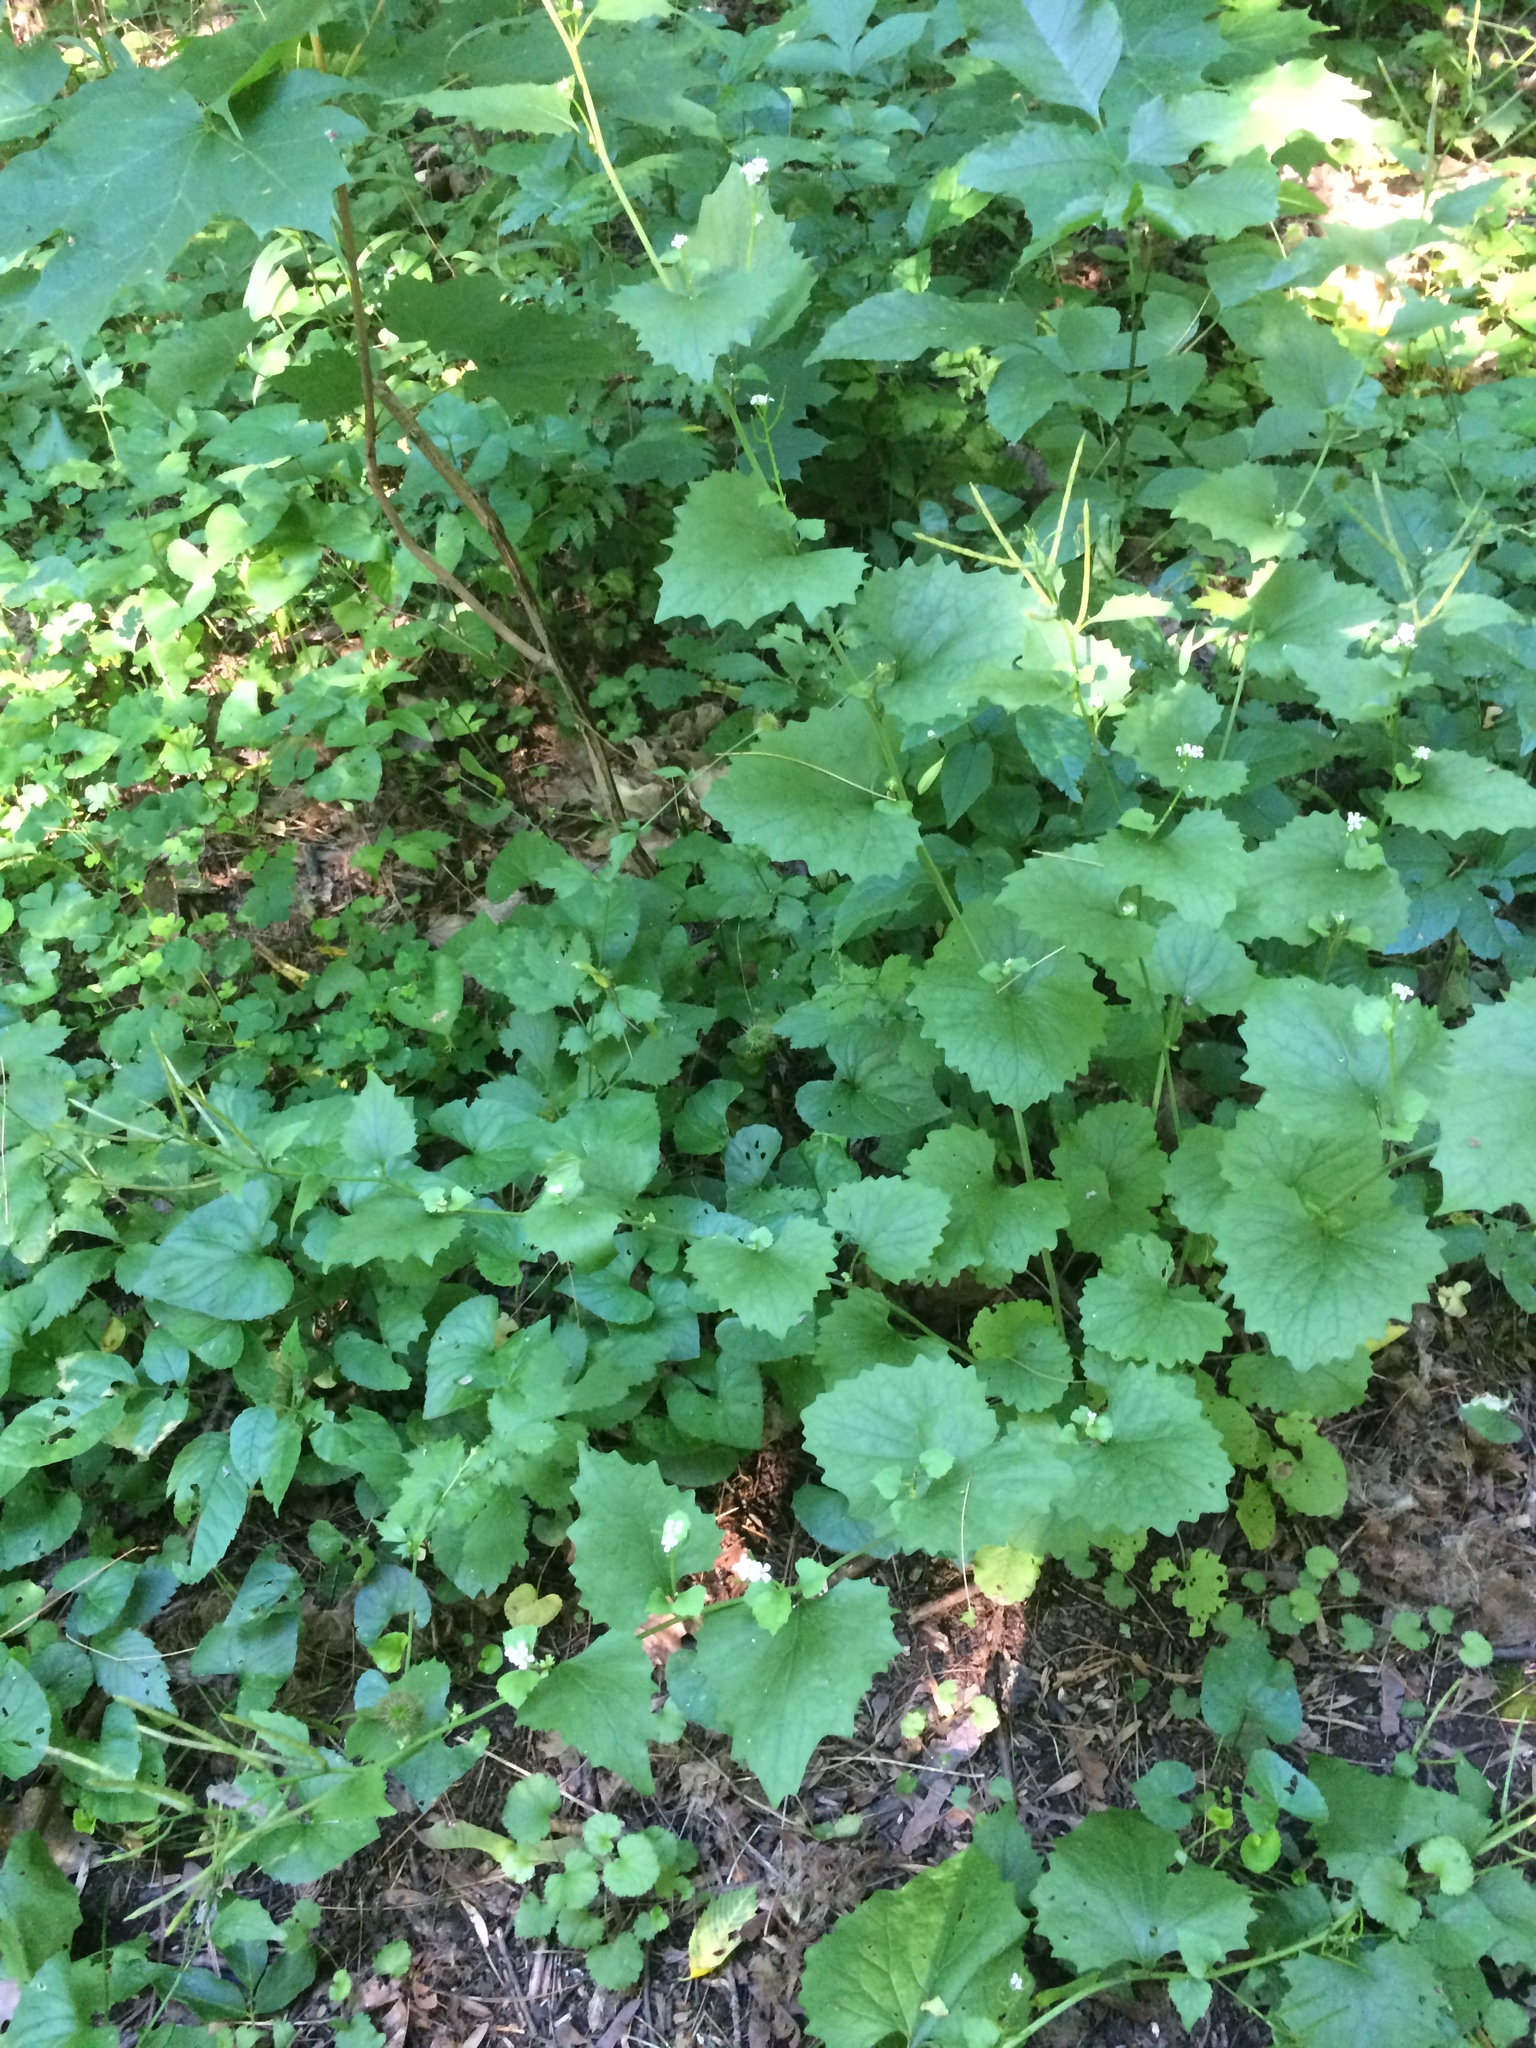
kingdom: Plantae
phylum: Tracheophyta
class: Magnoliopsida
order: Brassicales
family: Brassicaceae
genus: Alliaria
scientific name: Alliaria petiolata
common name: Garlic mustard
